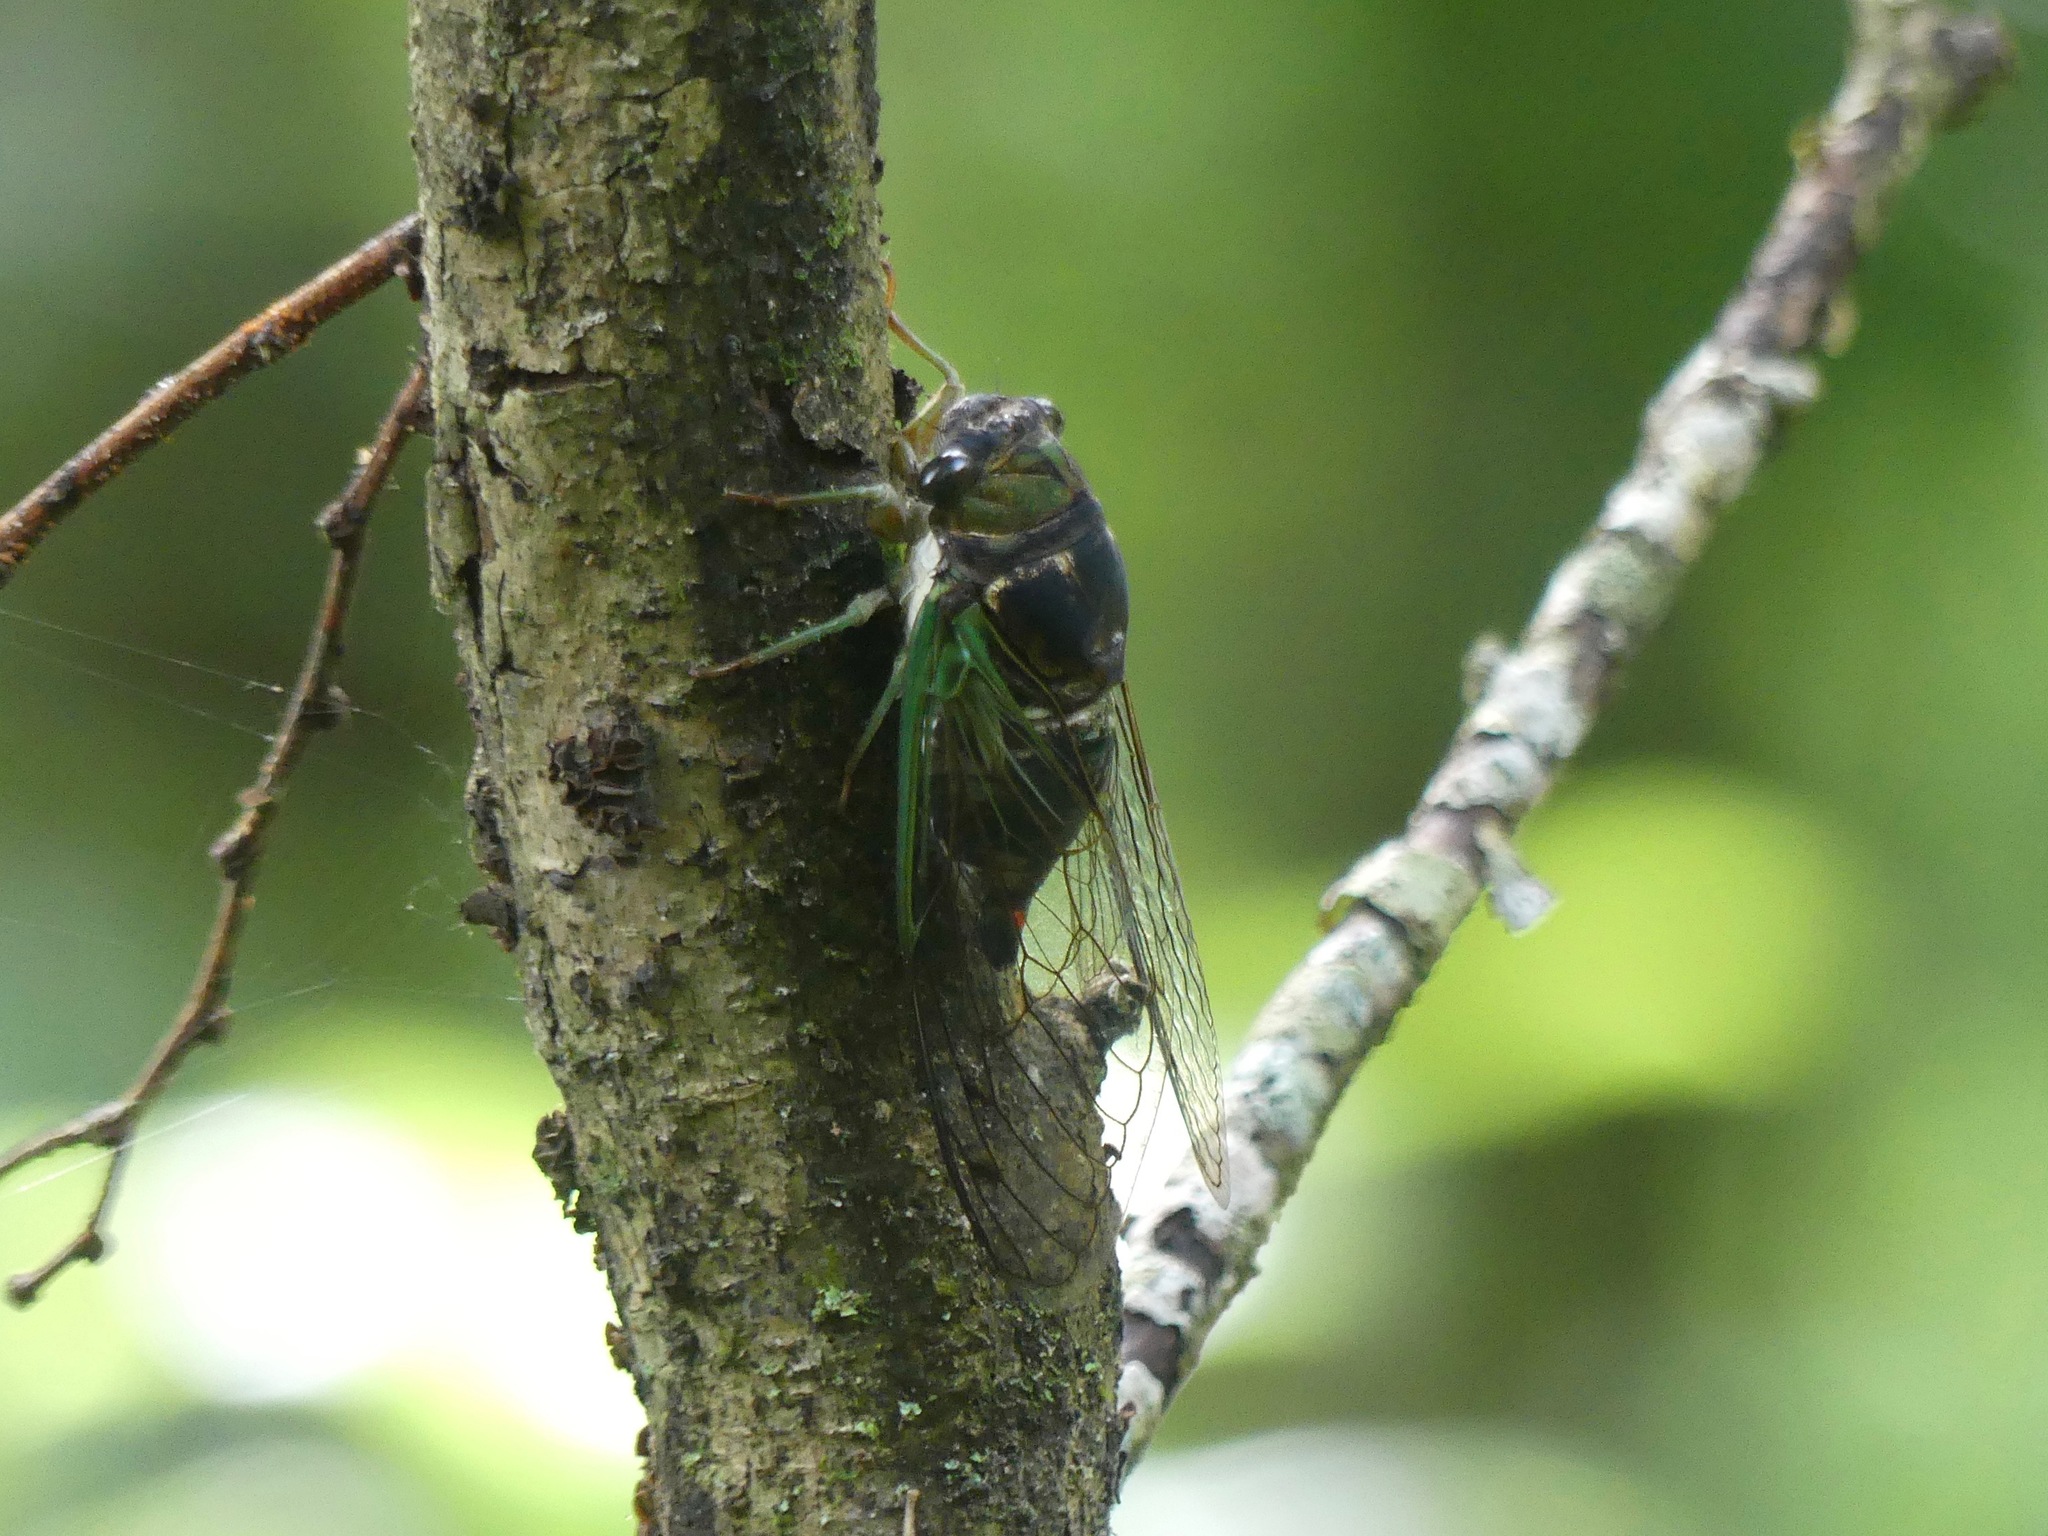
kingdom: Animalia
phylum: Arthropoda
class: Insecta
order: Hemiptera
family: Cicadidae
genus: Neotibicen
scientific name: Neotibicen tibicen
